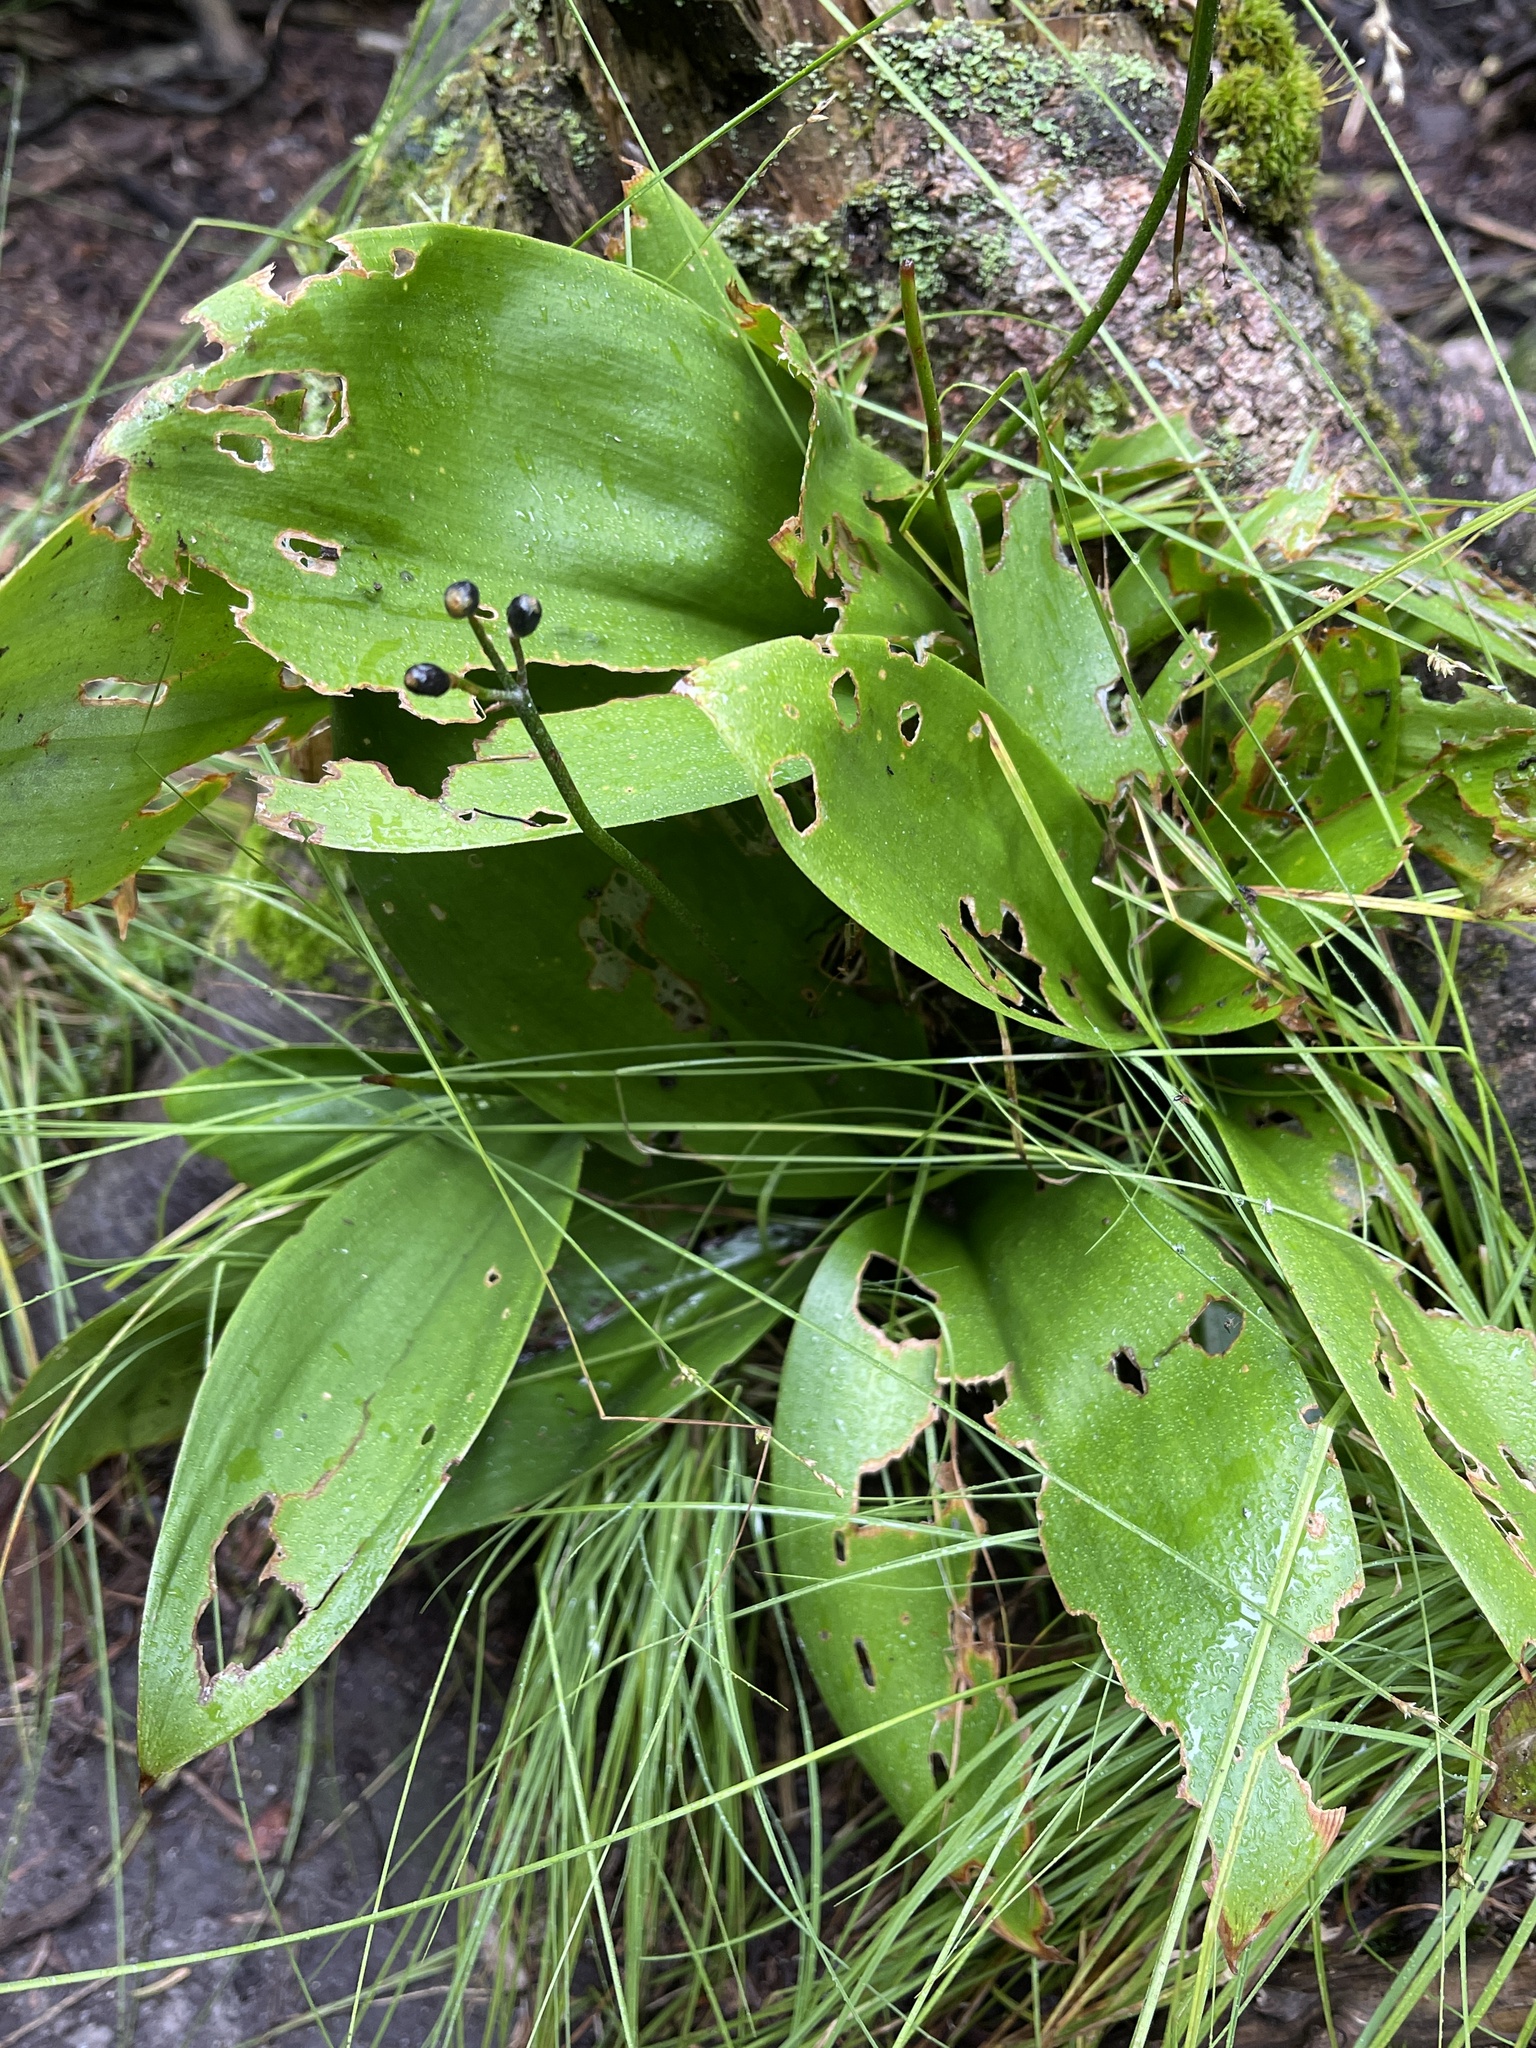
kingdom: Plantae
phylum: Tracheophyta
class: Liliopsida
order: Liliales
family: Liliaceae
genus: Clintonia
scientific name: Clintonia borealis
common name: Yellow clintonia
